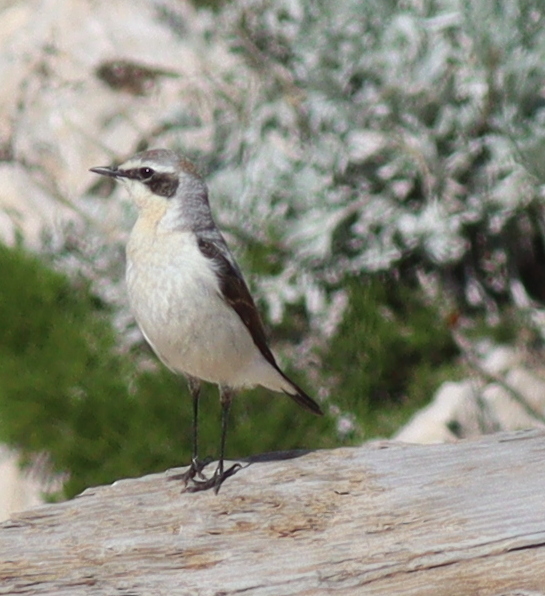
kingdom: Animalia
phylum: Chordata
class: Aves
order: Passeriformes
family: Muscicapidae
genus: Oenanthe
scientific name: Oenanthe oenanthe
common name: Northern wheatear
